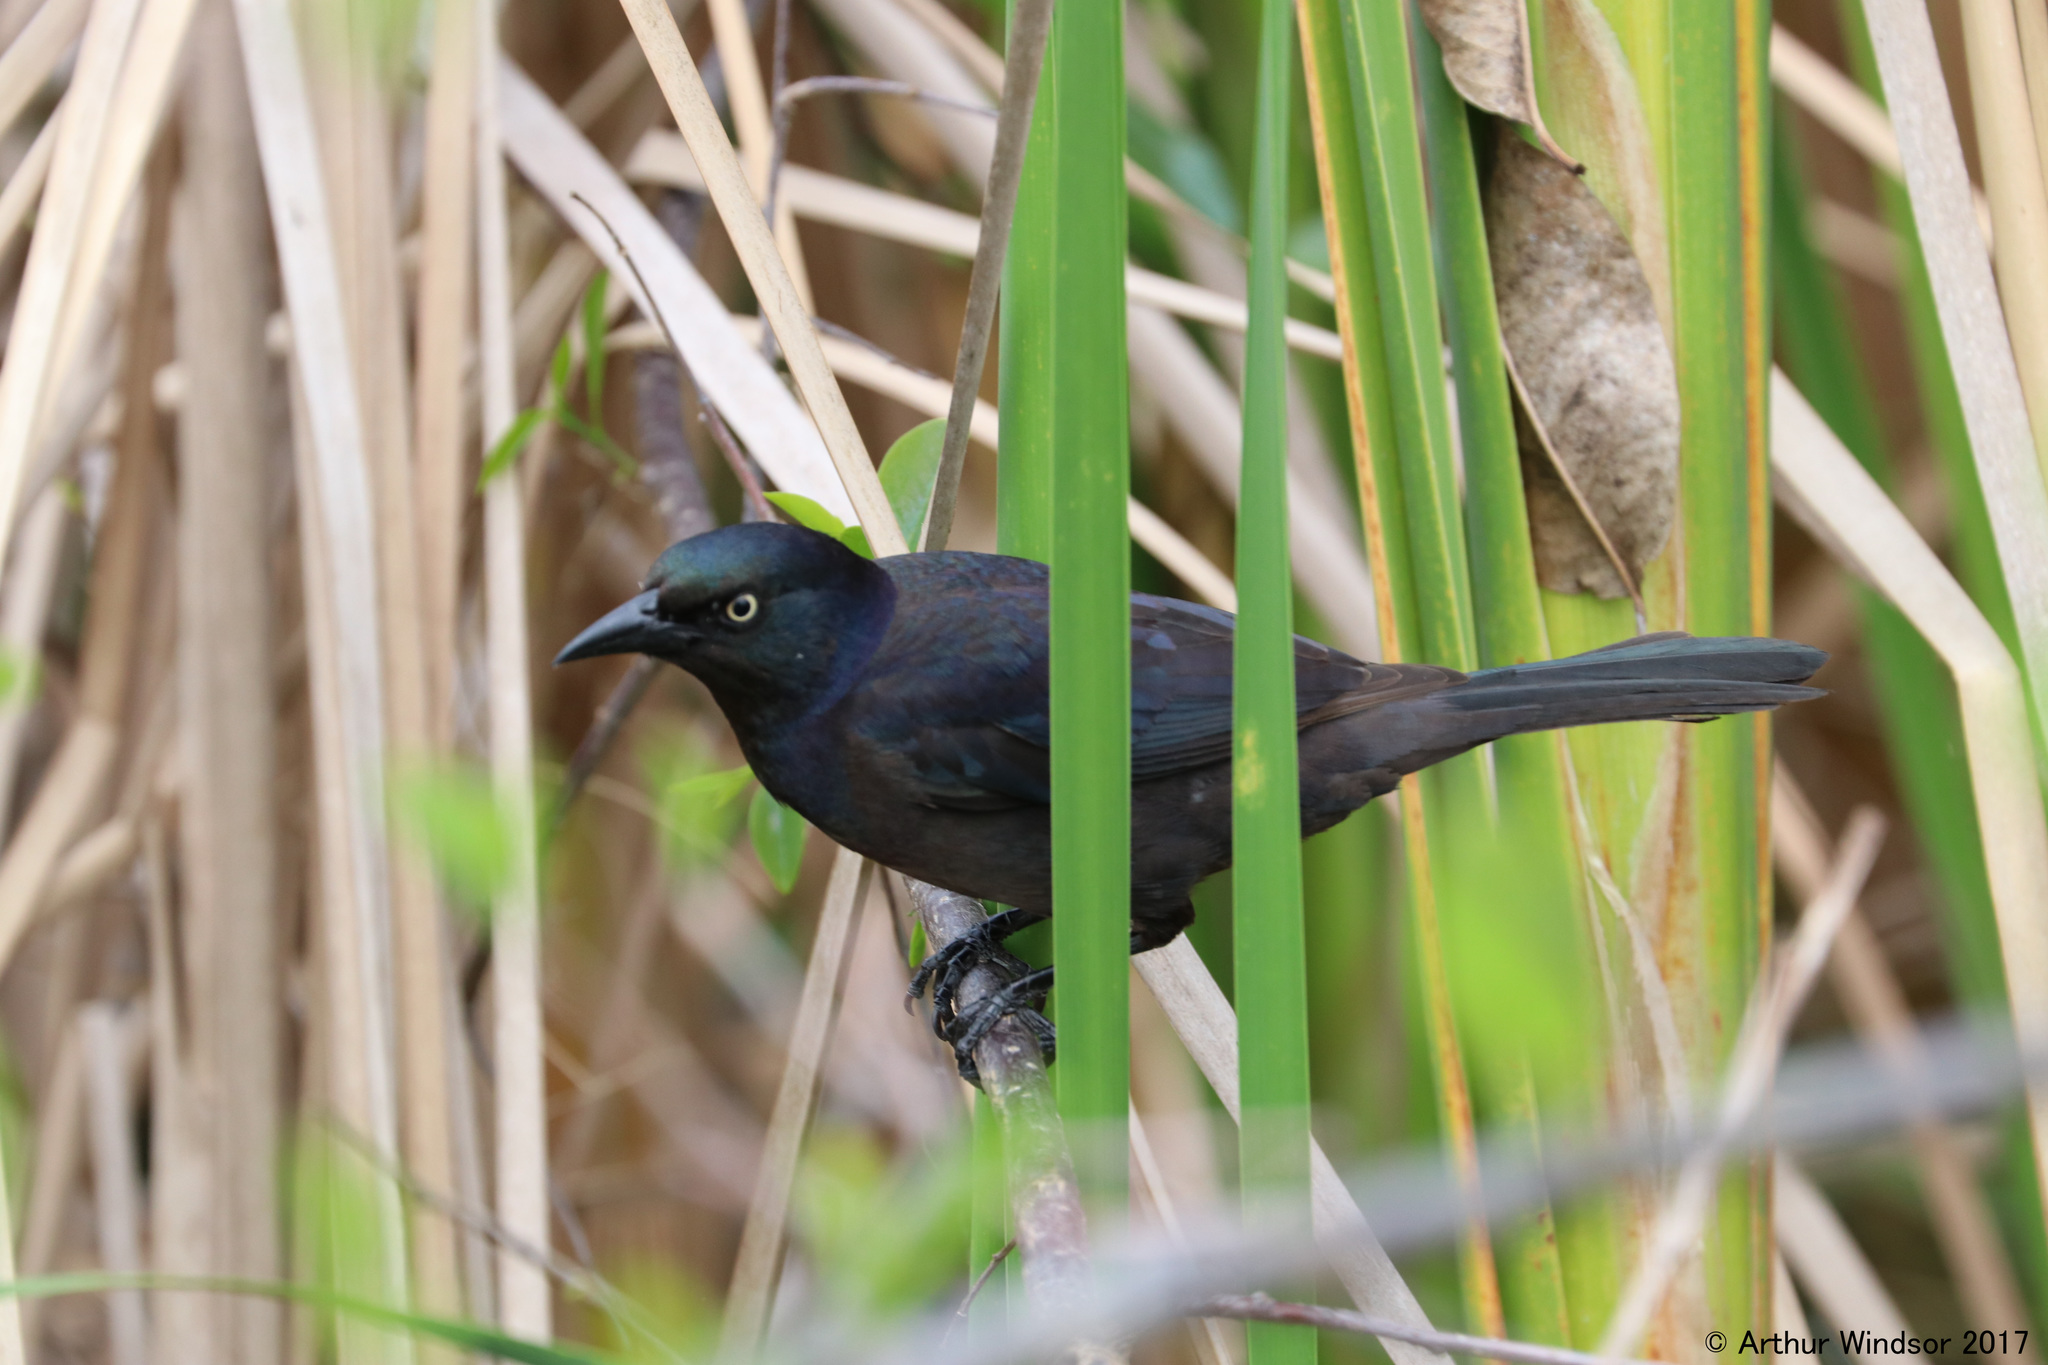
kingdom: Animalia
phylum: Chordata
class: Aves
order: Passeriformes
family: Icteridae
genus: Quiscalus
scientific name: Quiscalus quiscula
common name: Common grackle
